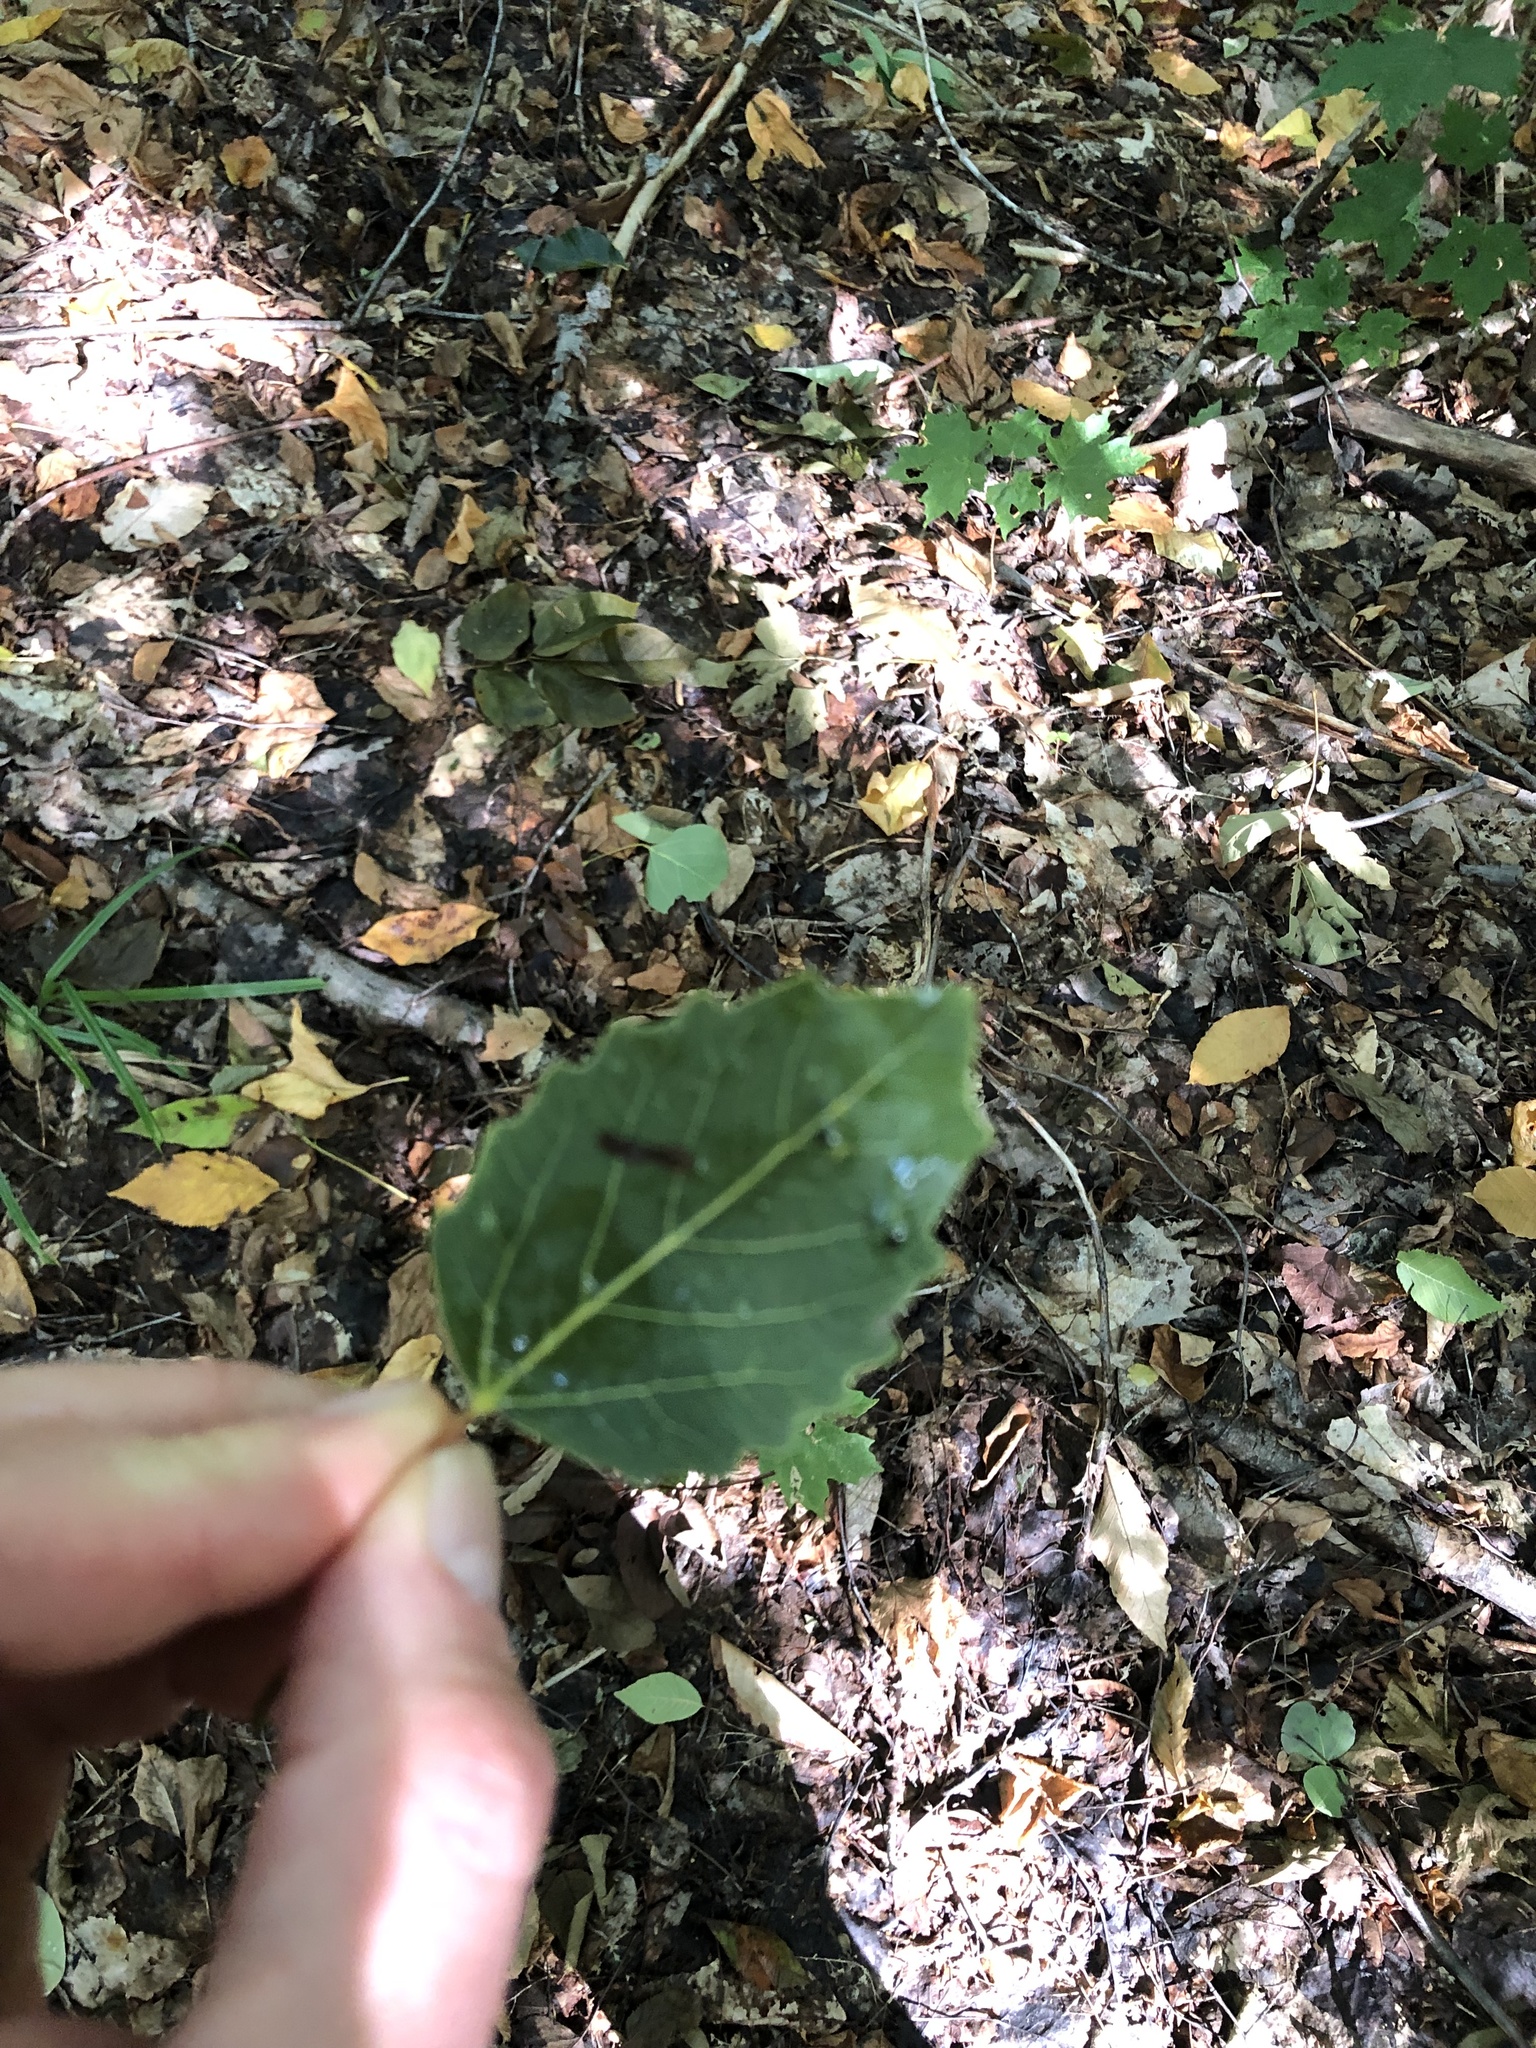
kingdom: Plantae
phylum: Tracheophyta
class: Magnoliopsida
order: Malpighiales
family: Salicaceae
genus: Populus
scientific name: Populus grandidentata
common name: Bigtooth aspen
